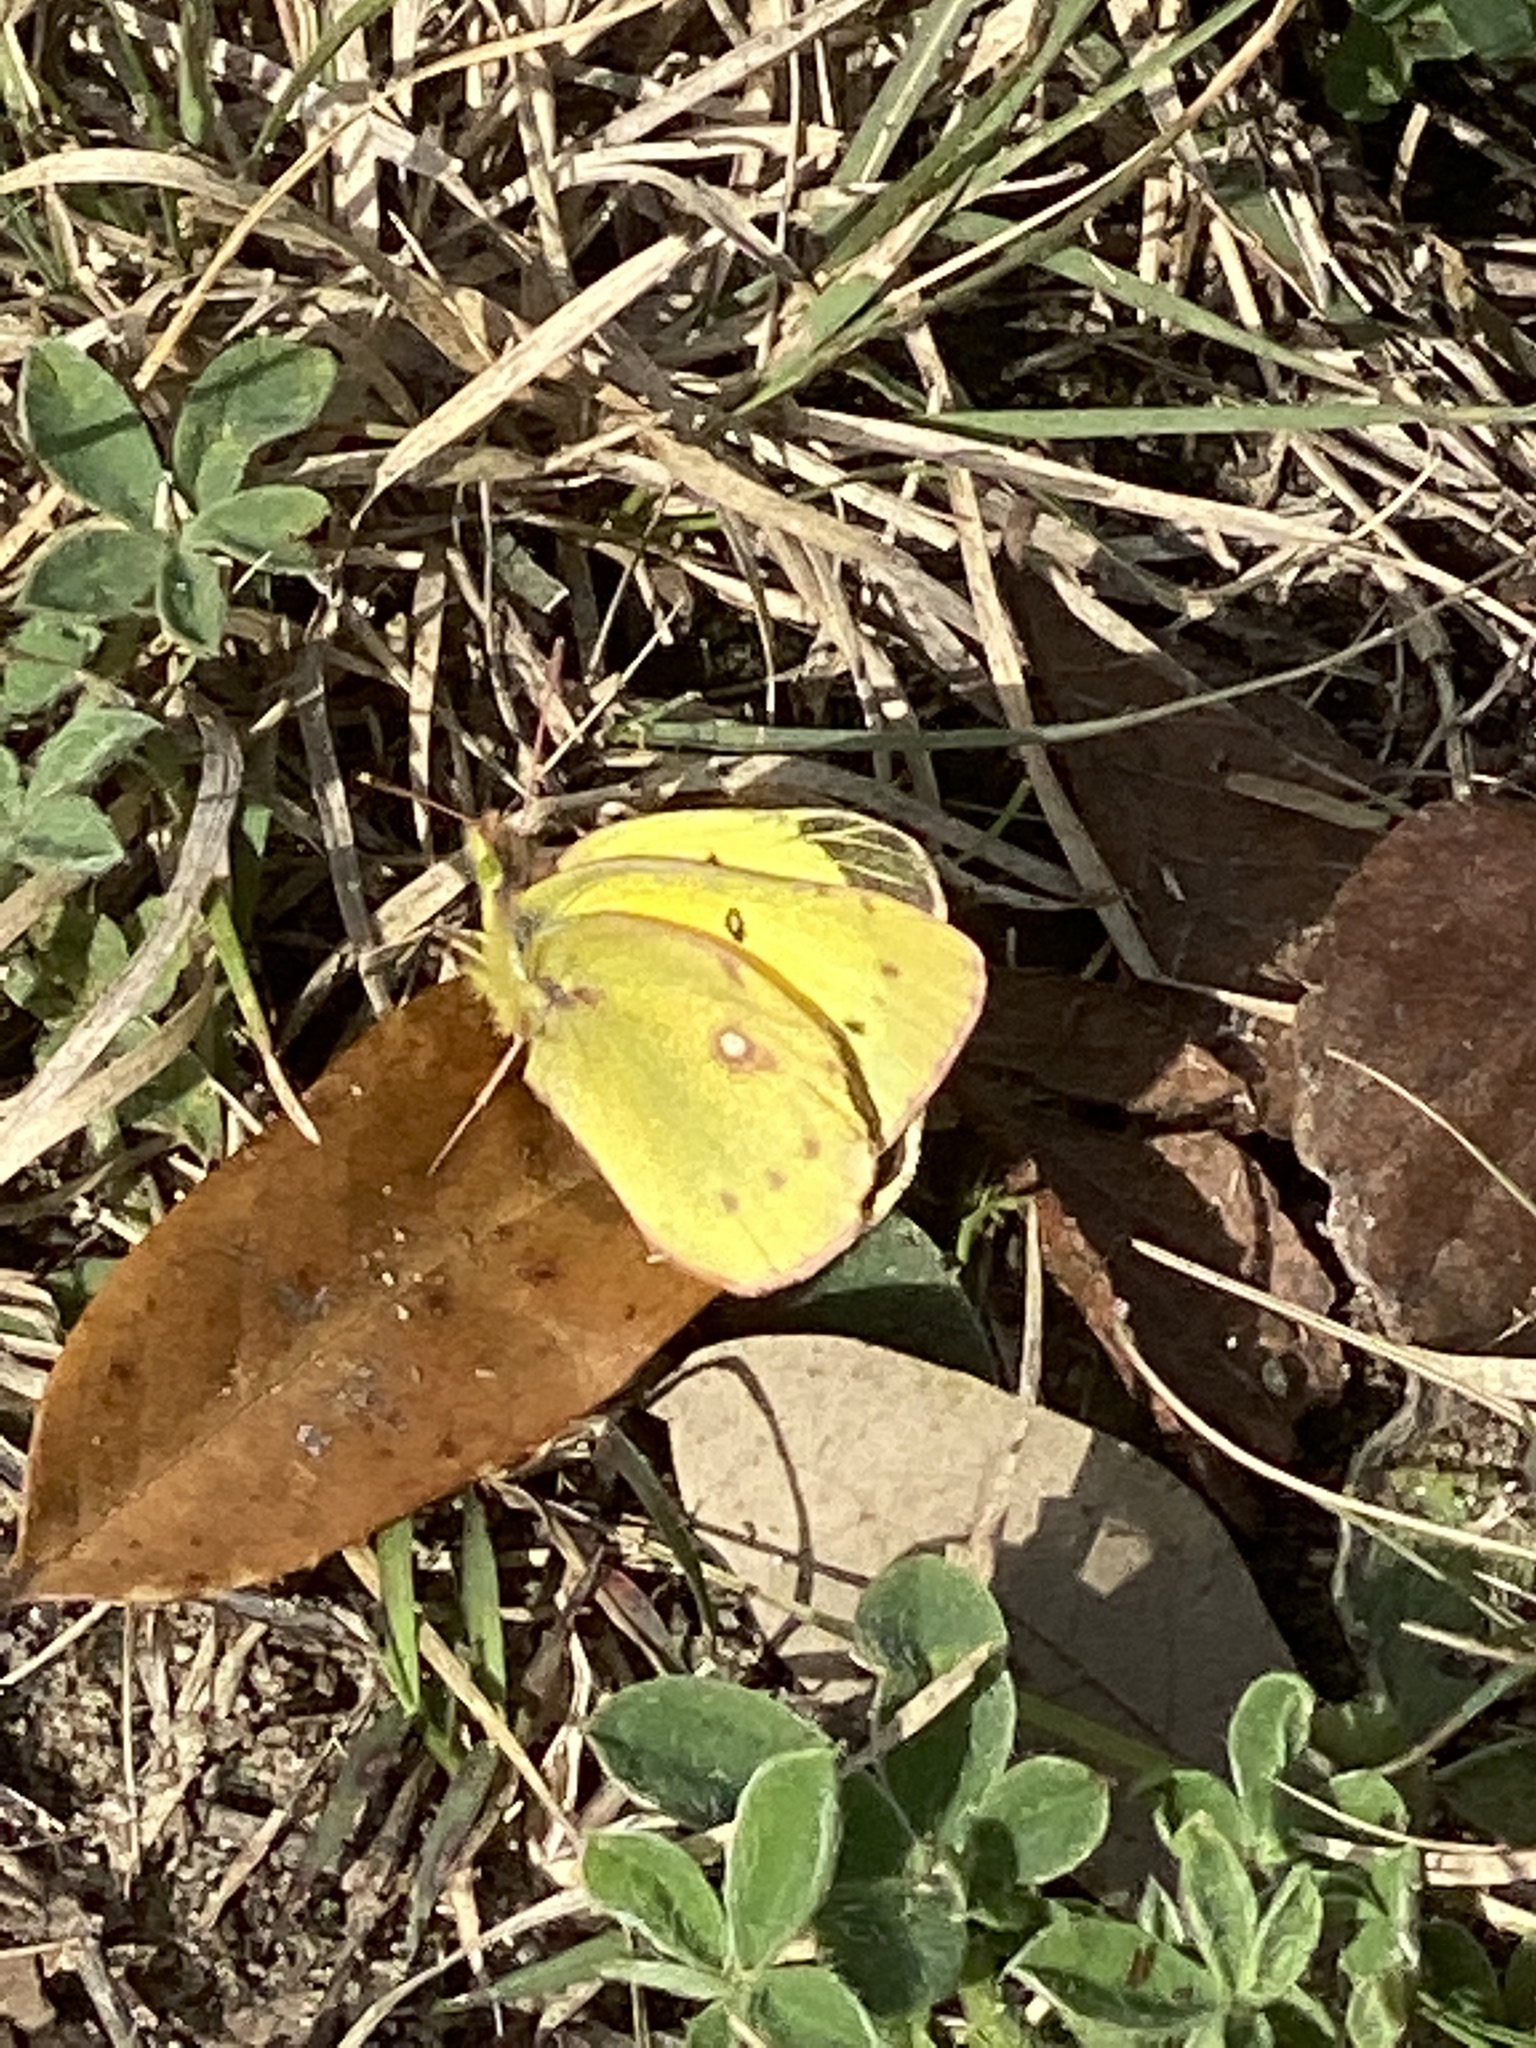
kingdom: Animalia
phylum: Arthropoda
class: Insecta
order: Lepidoptera
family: Pieridae
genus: Colias
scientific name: Colias eurytheme
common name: Alfalfa butterfly
